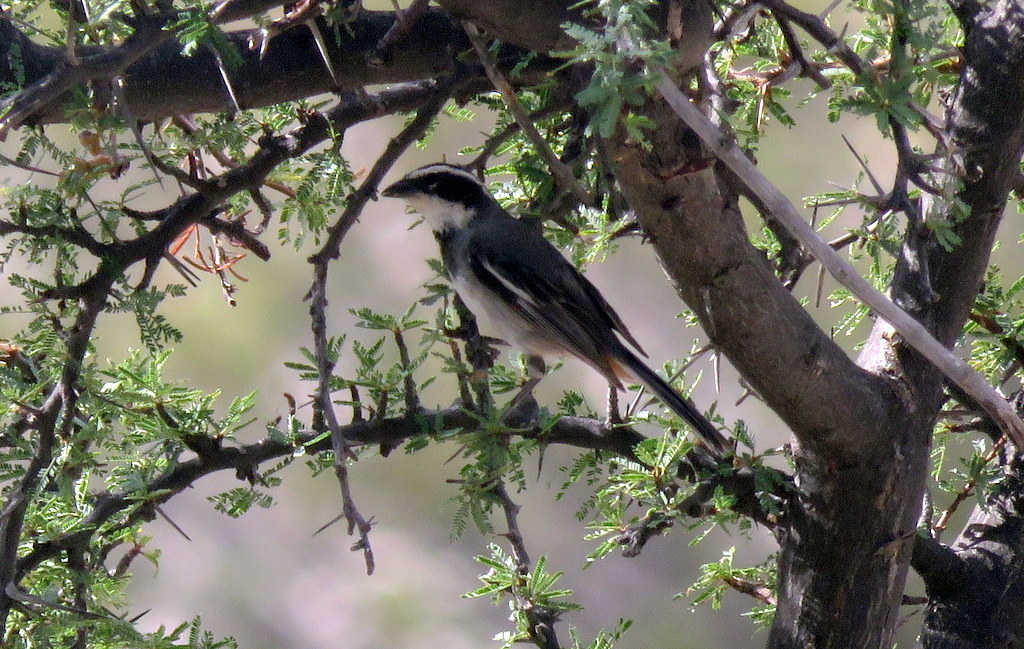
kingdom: Animalia
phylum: Chordata
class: Aves
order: Passeriformes
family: Thraupidae
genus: Microspingus
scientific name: Microspingus torquatus
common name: Ringed warbling-finch
